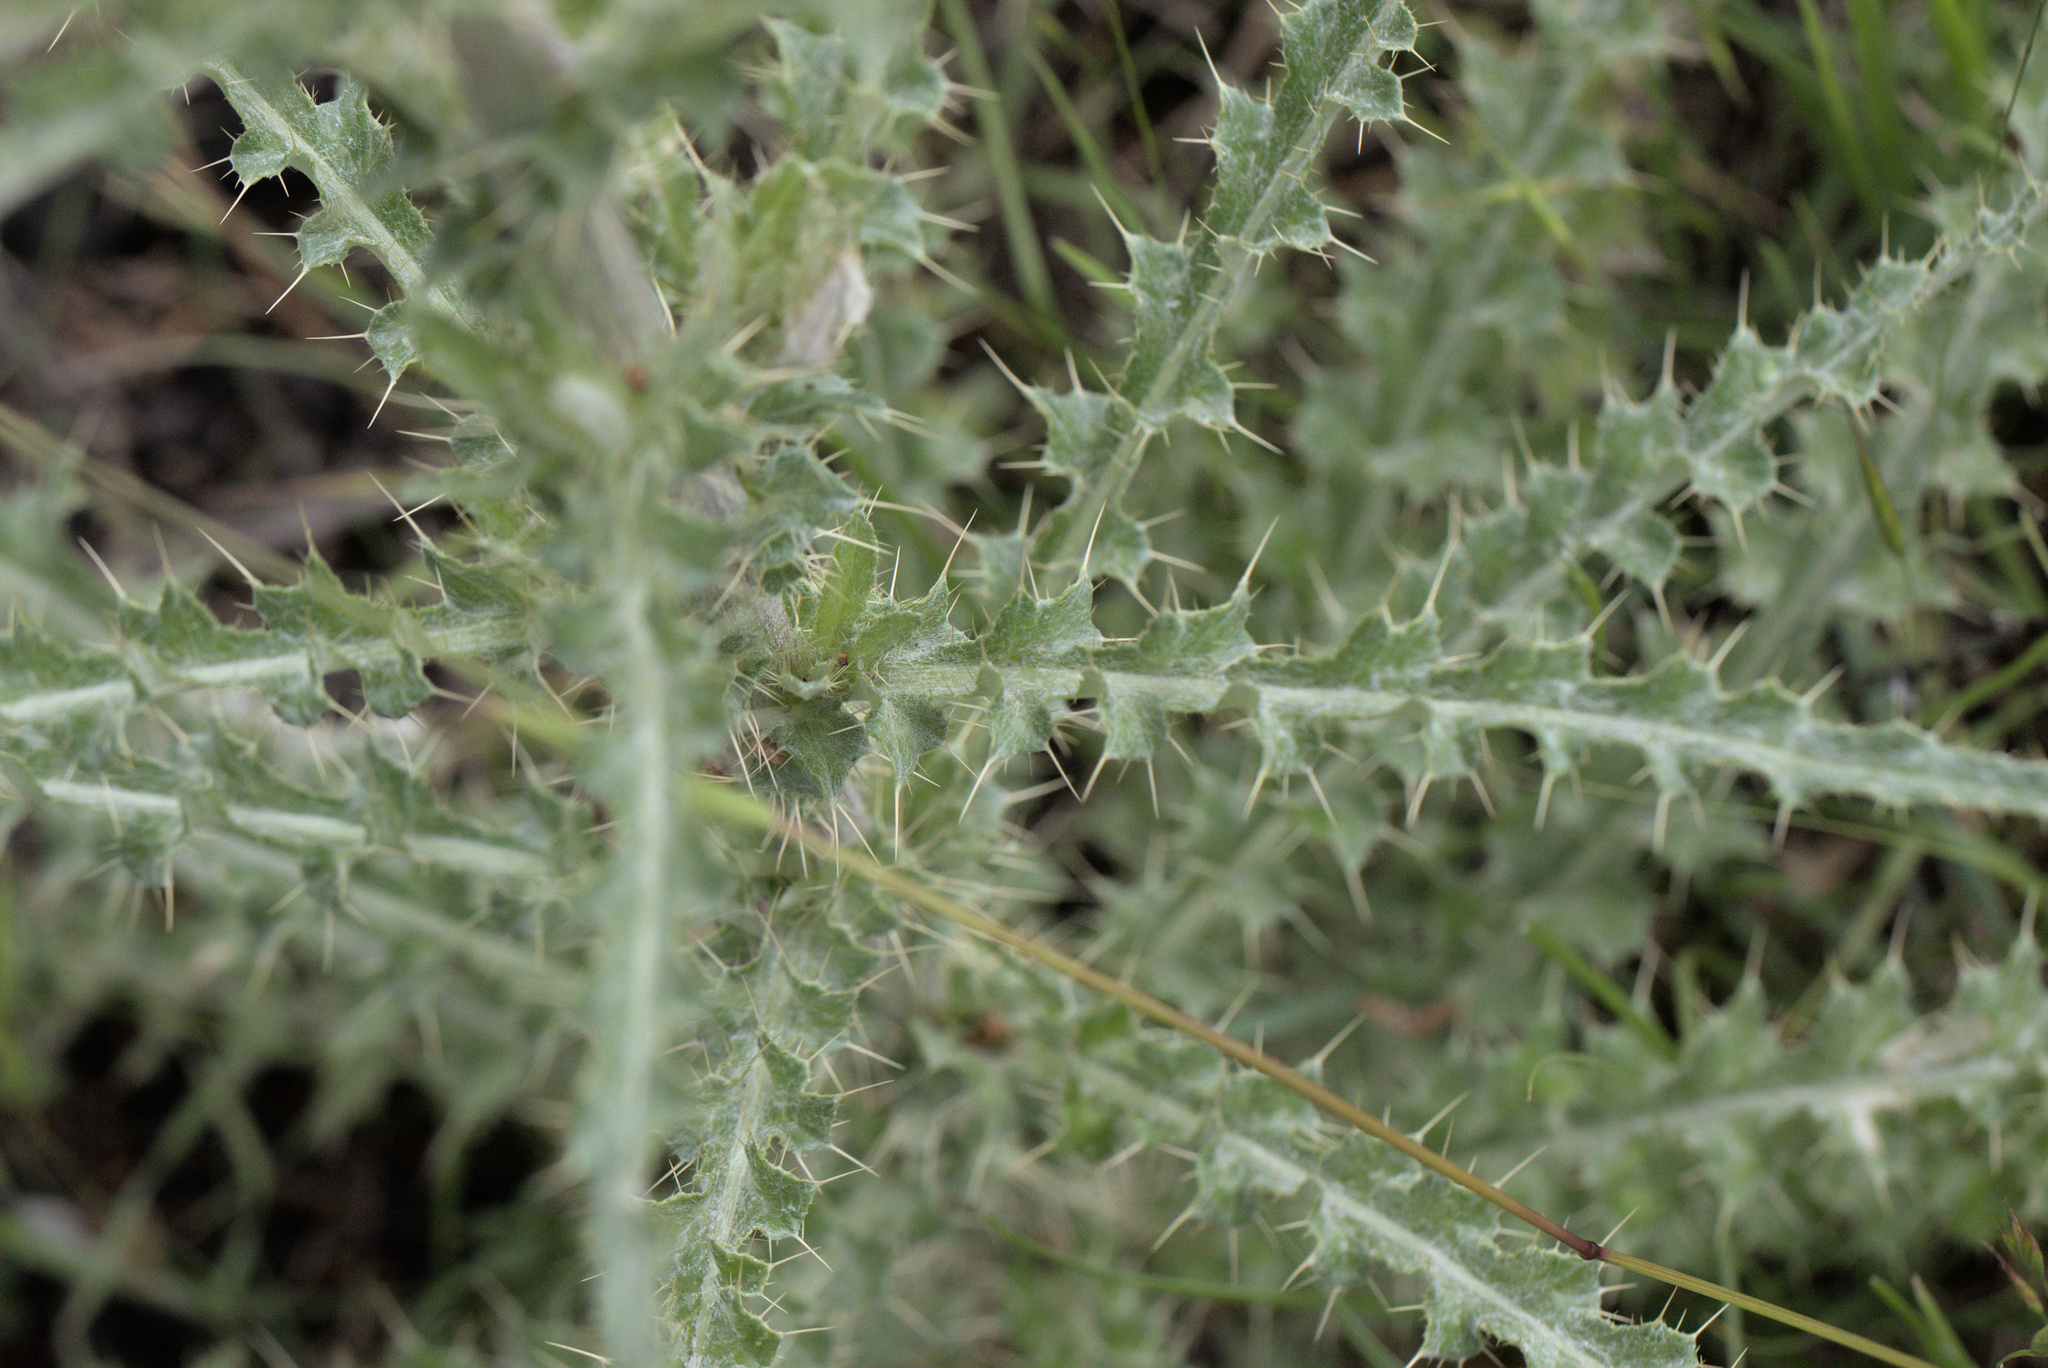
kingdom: Plantae
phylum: Tracheophyta
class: Magnoliopsida
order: Asterales
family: Asteraceae
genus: Cirsium
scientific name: Cirsium cymosum
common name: Peregrine thistle
